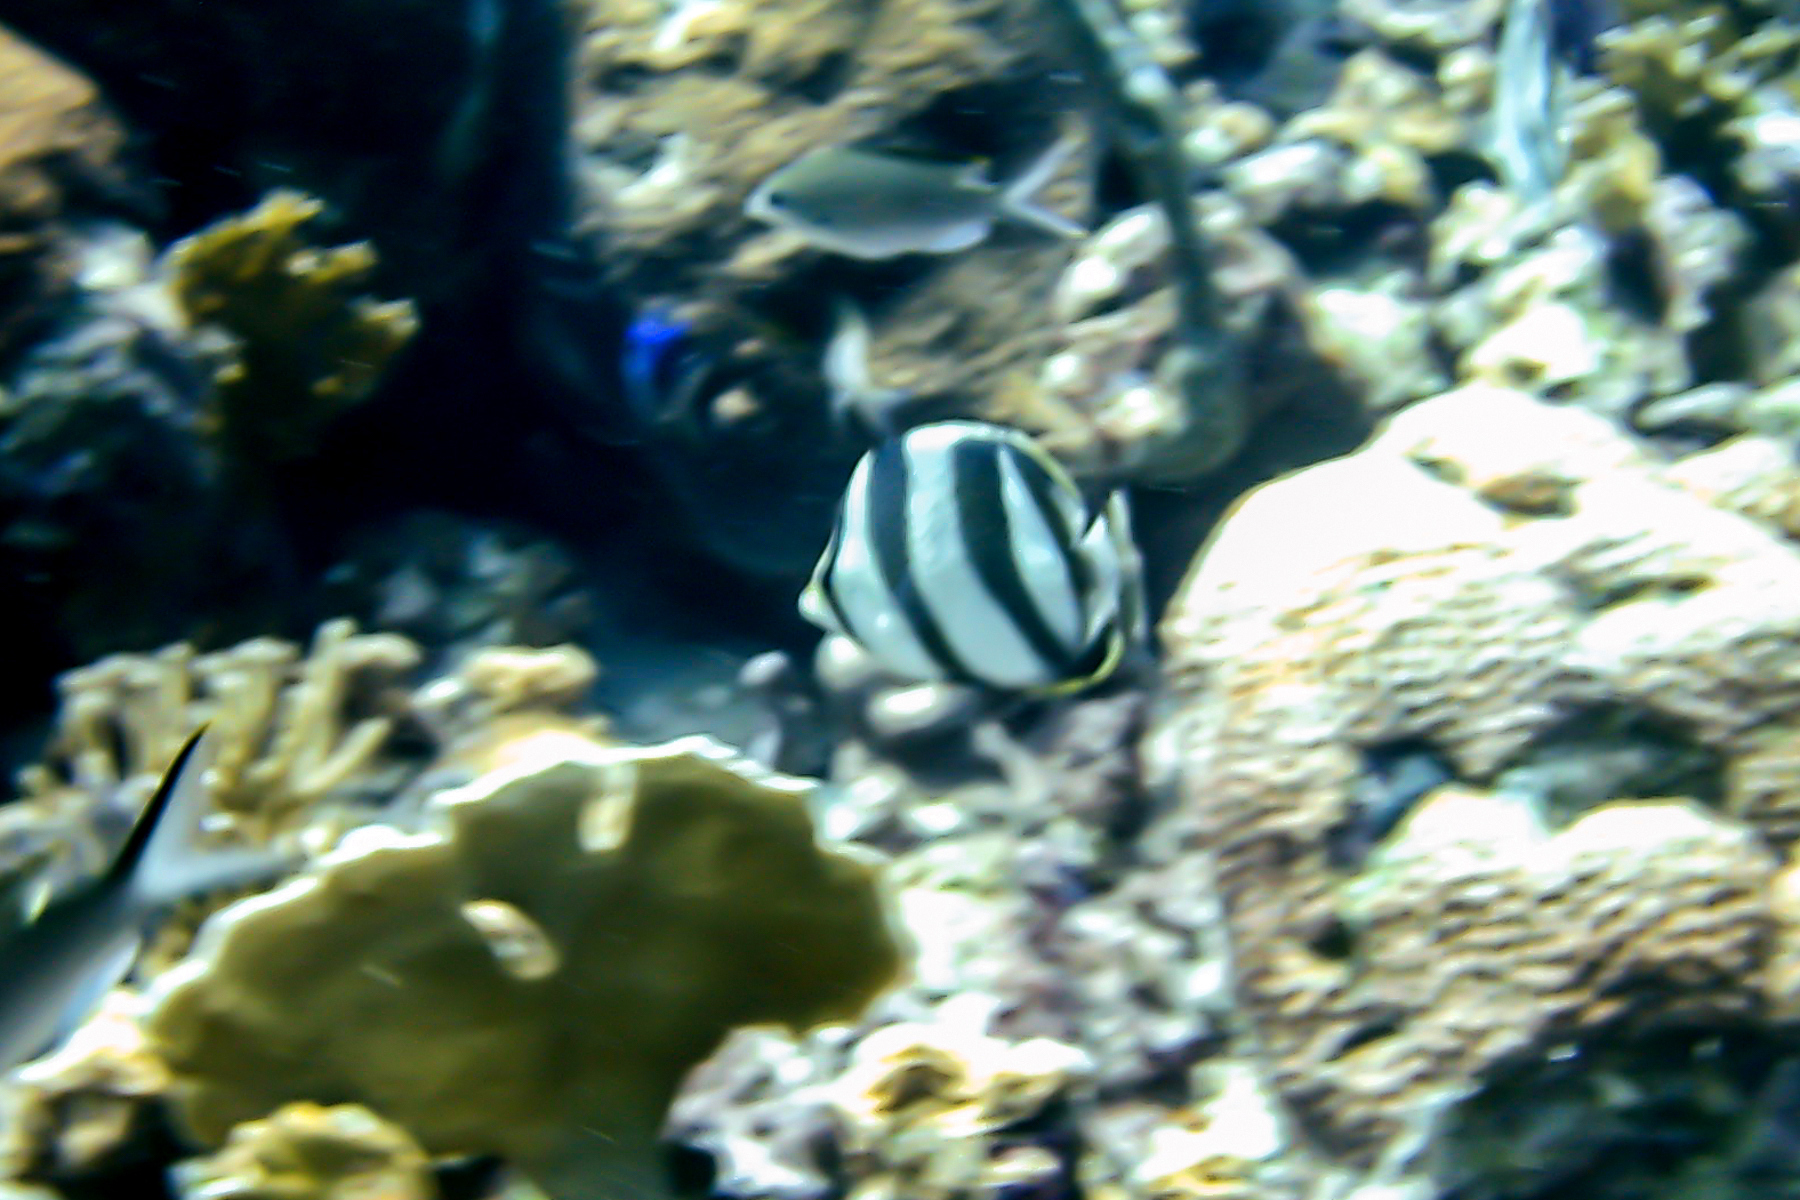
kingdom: Animalia
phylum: Chordata
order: Perciformes
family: Chaetodontidae
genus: Chaetodon
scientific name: Chaetodon striatus
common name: Banded butterflyfish
